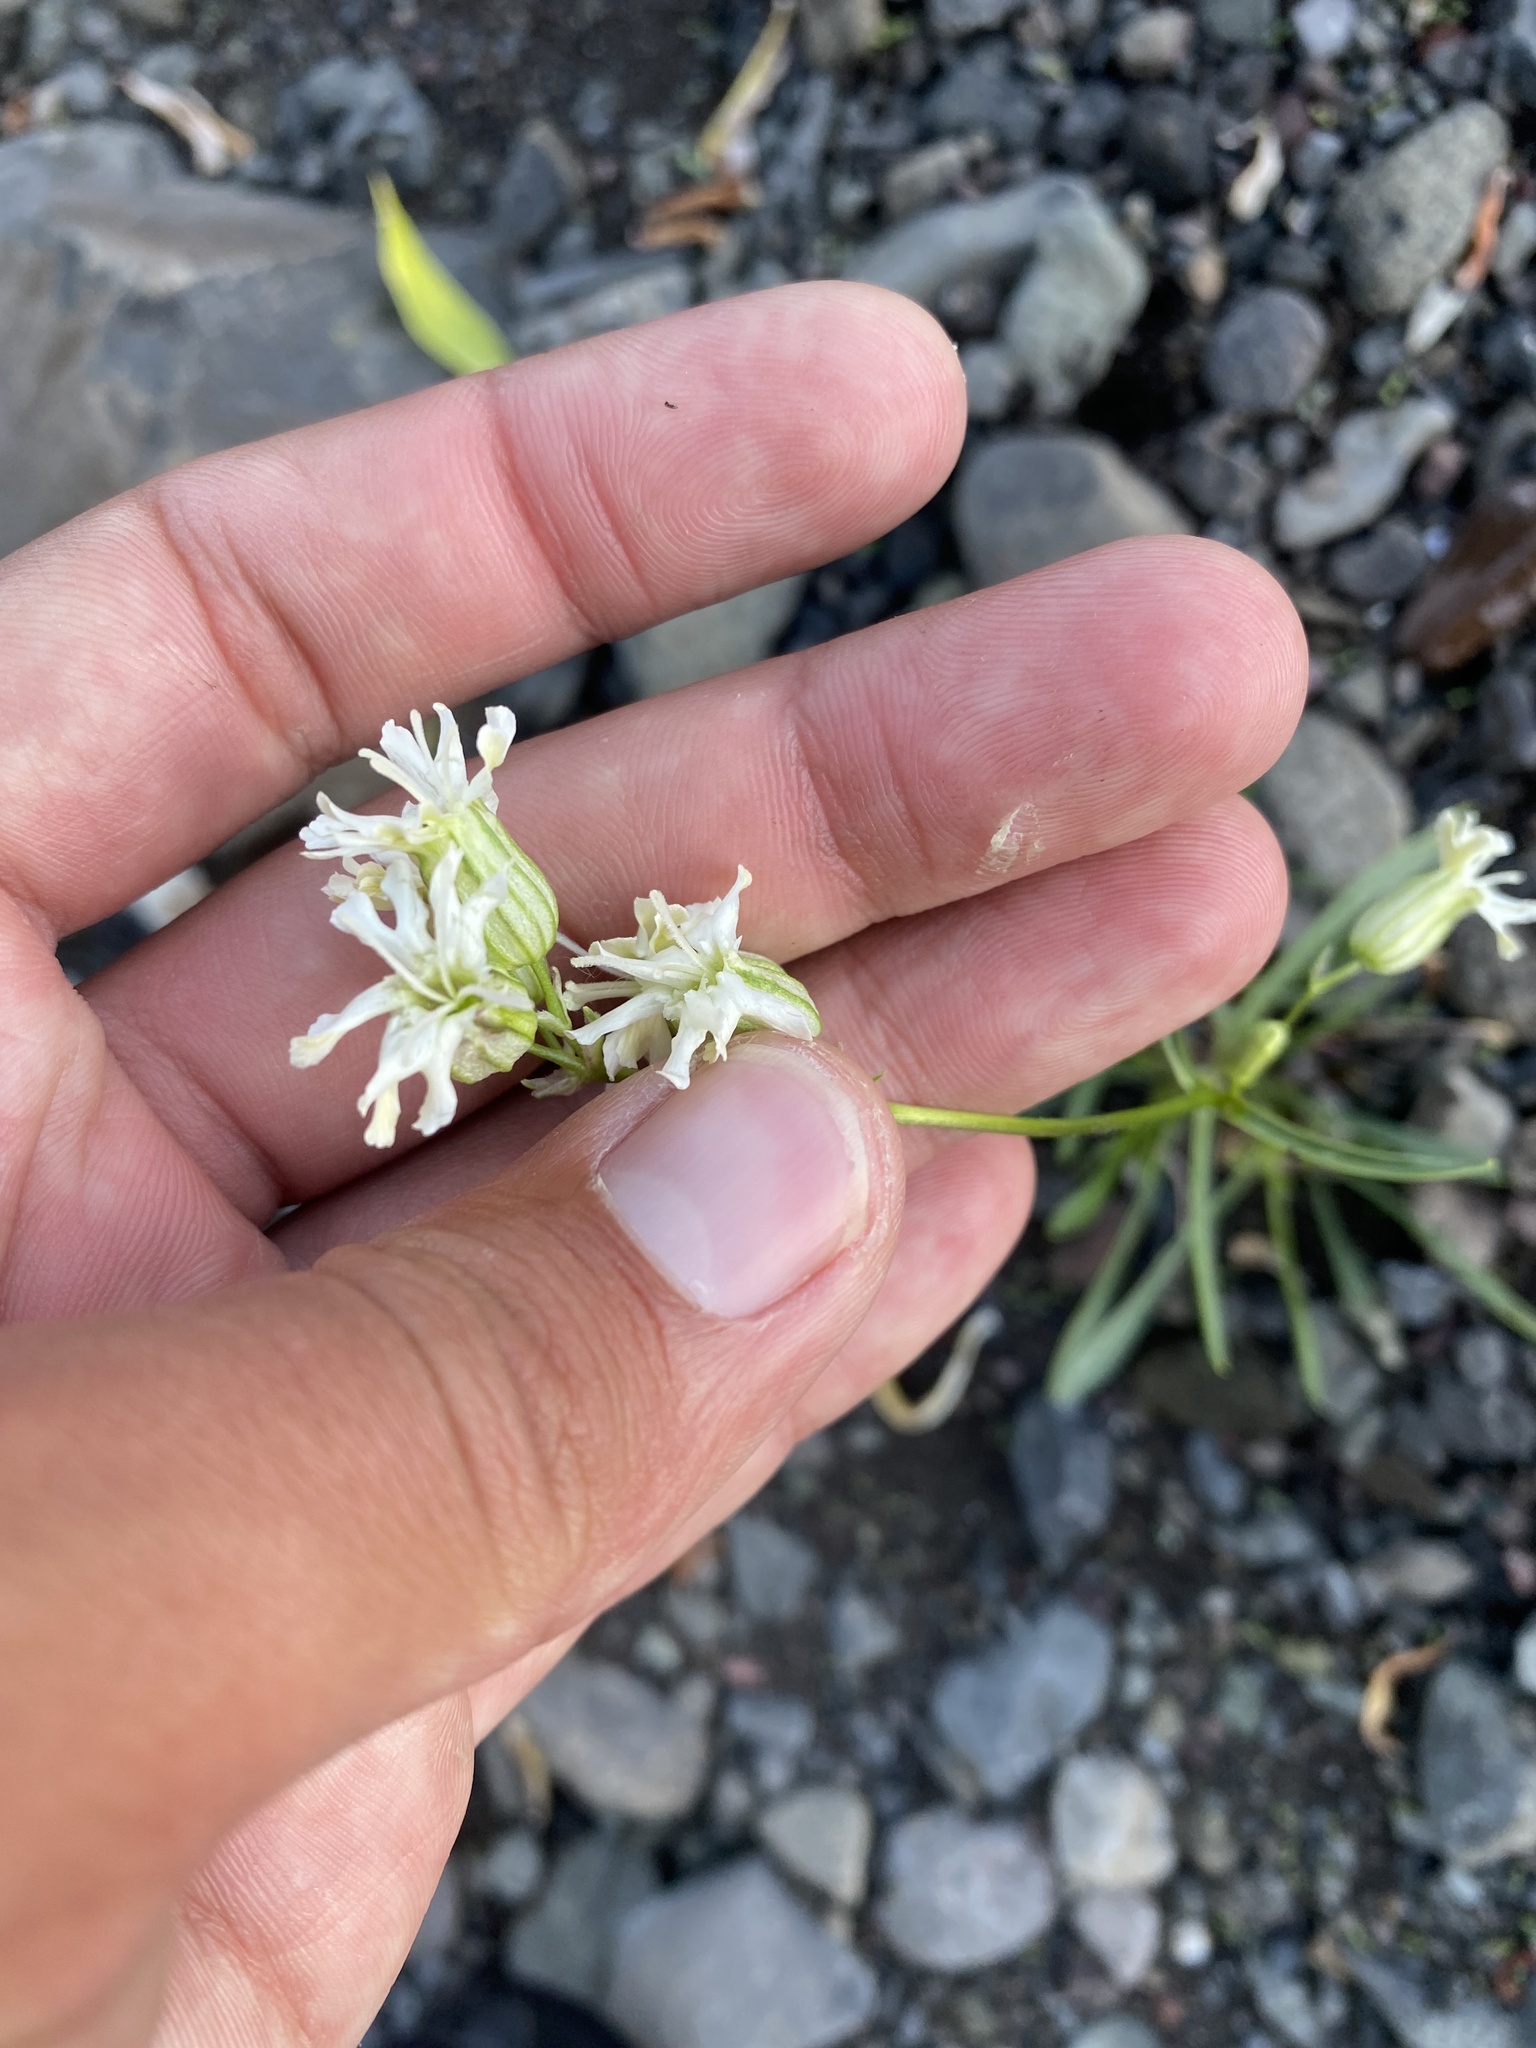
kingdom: Plantae
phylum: Tracheophyta
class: Magnoliopsida
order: Caryophyllales
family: Caryophyllaceae
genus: Silene
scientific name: Silene chamarensis
